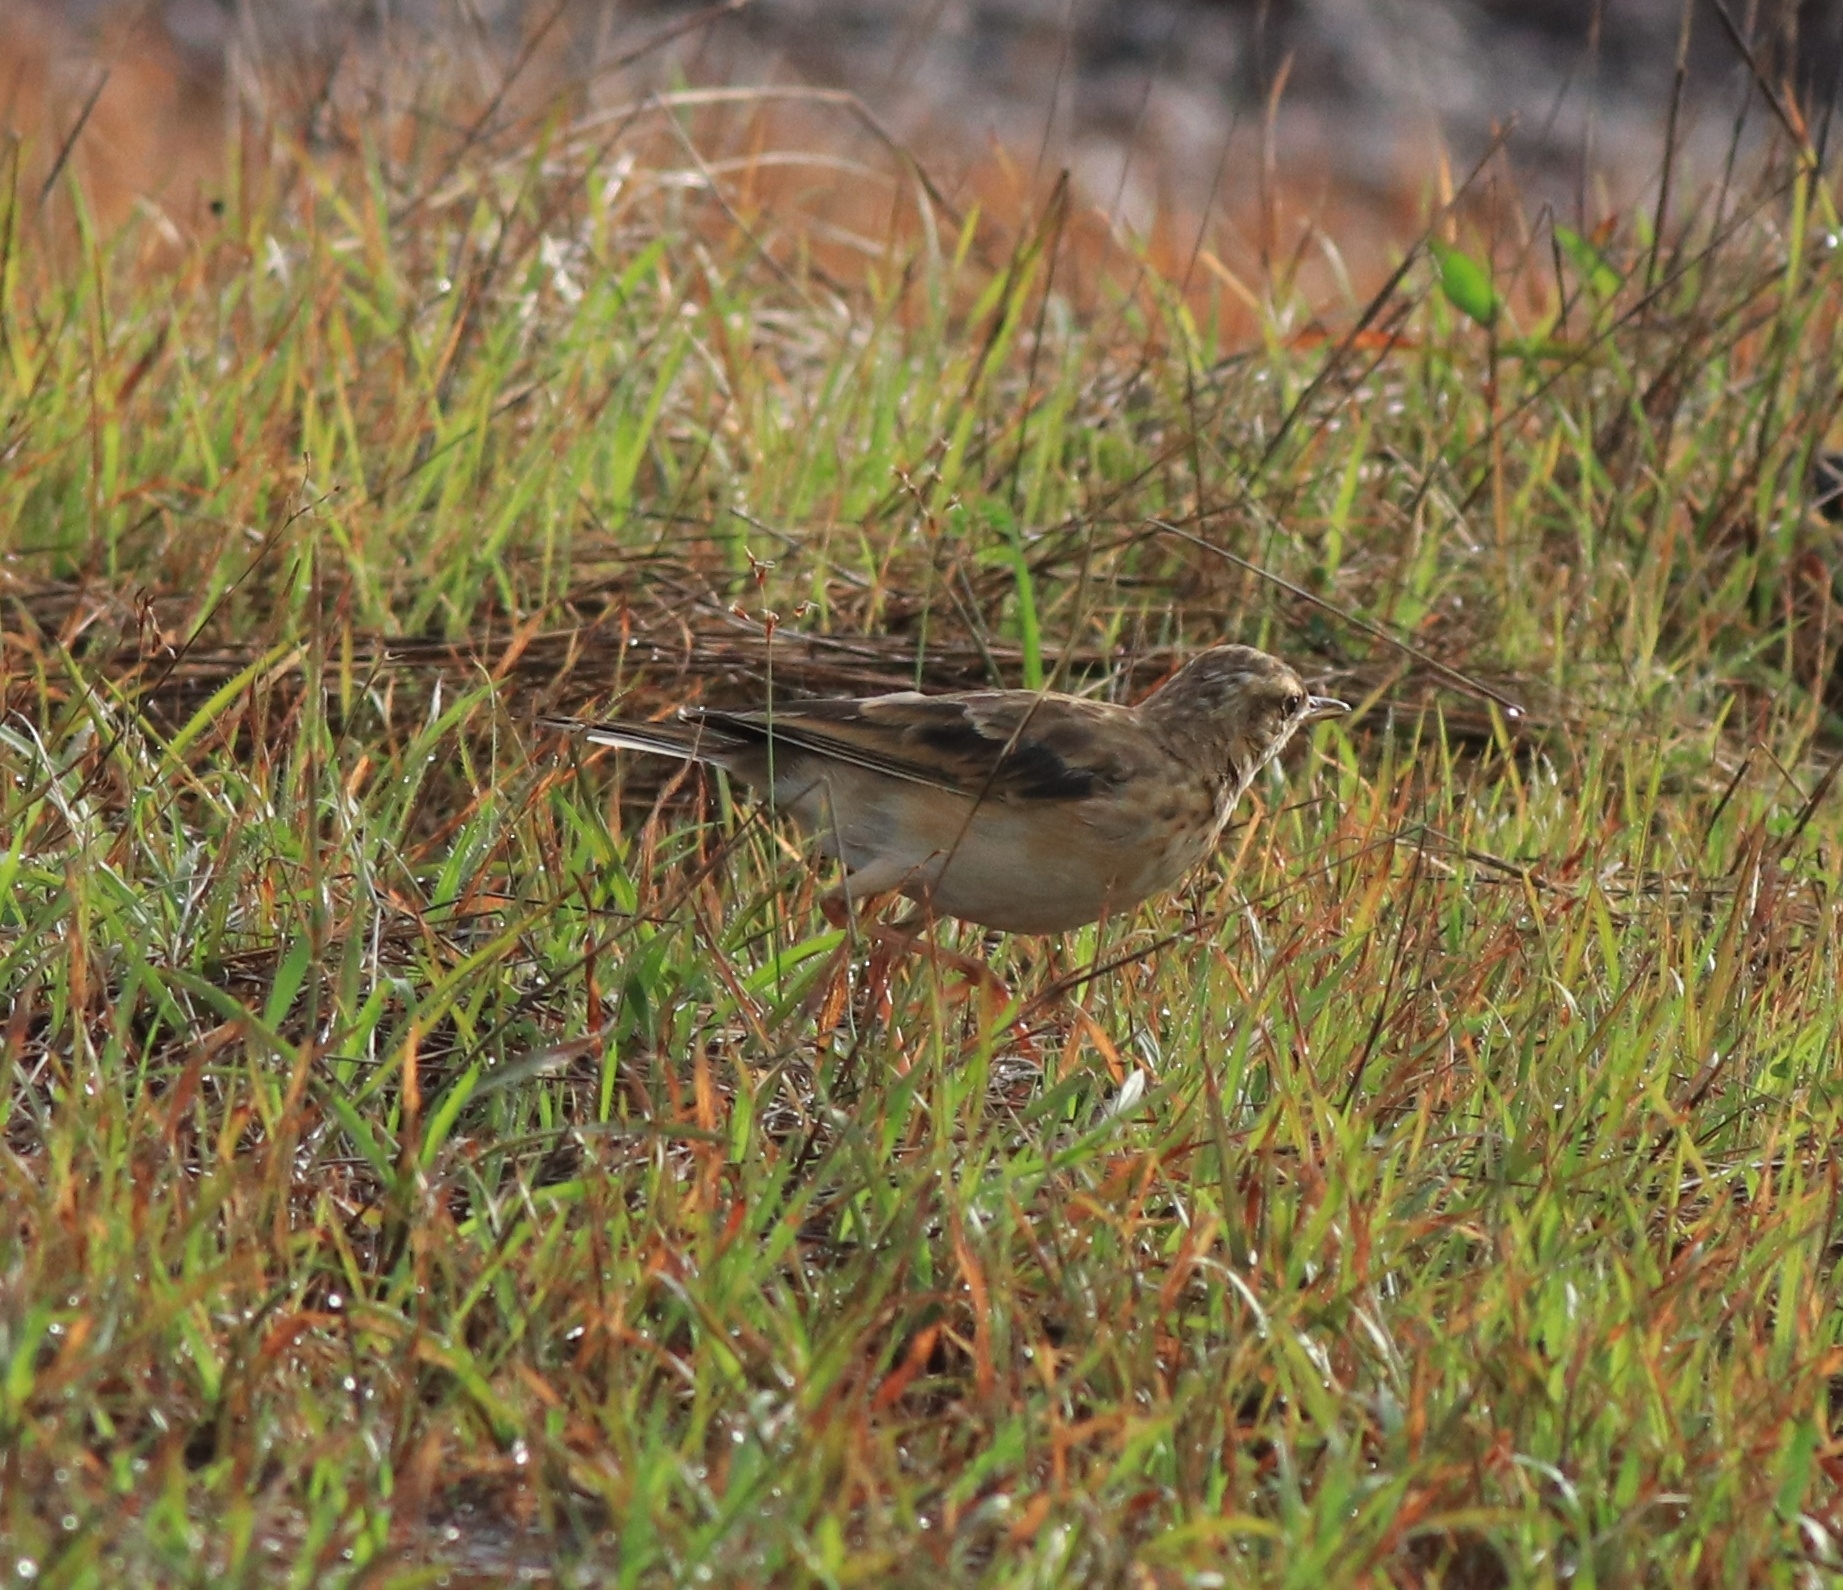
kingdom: Animalia
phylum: Chordata
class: Aves
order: Passeriformes
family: Motacillidae
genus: Anthus
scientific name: Anthus rufulus
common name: Paddyfield pipit
